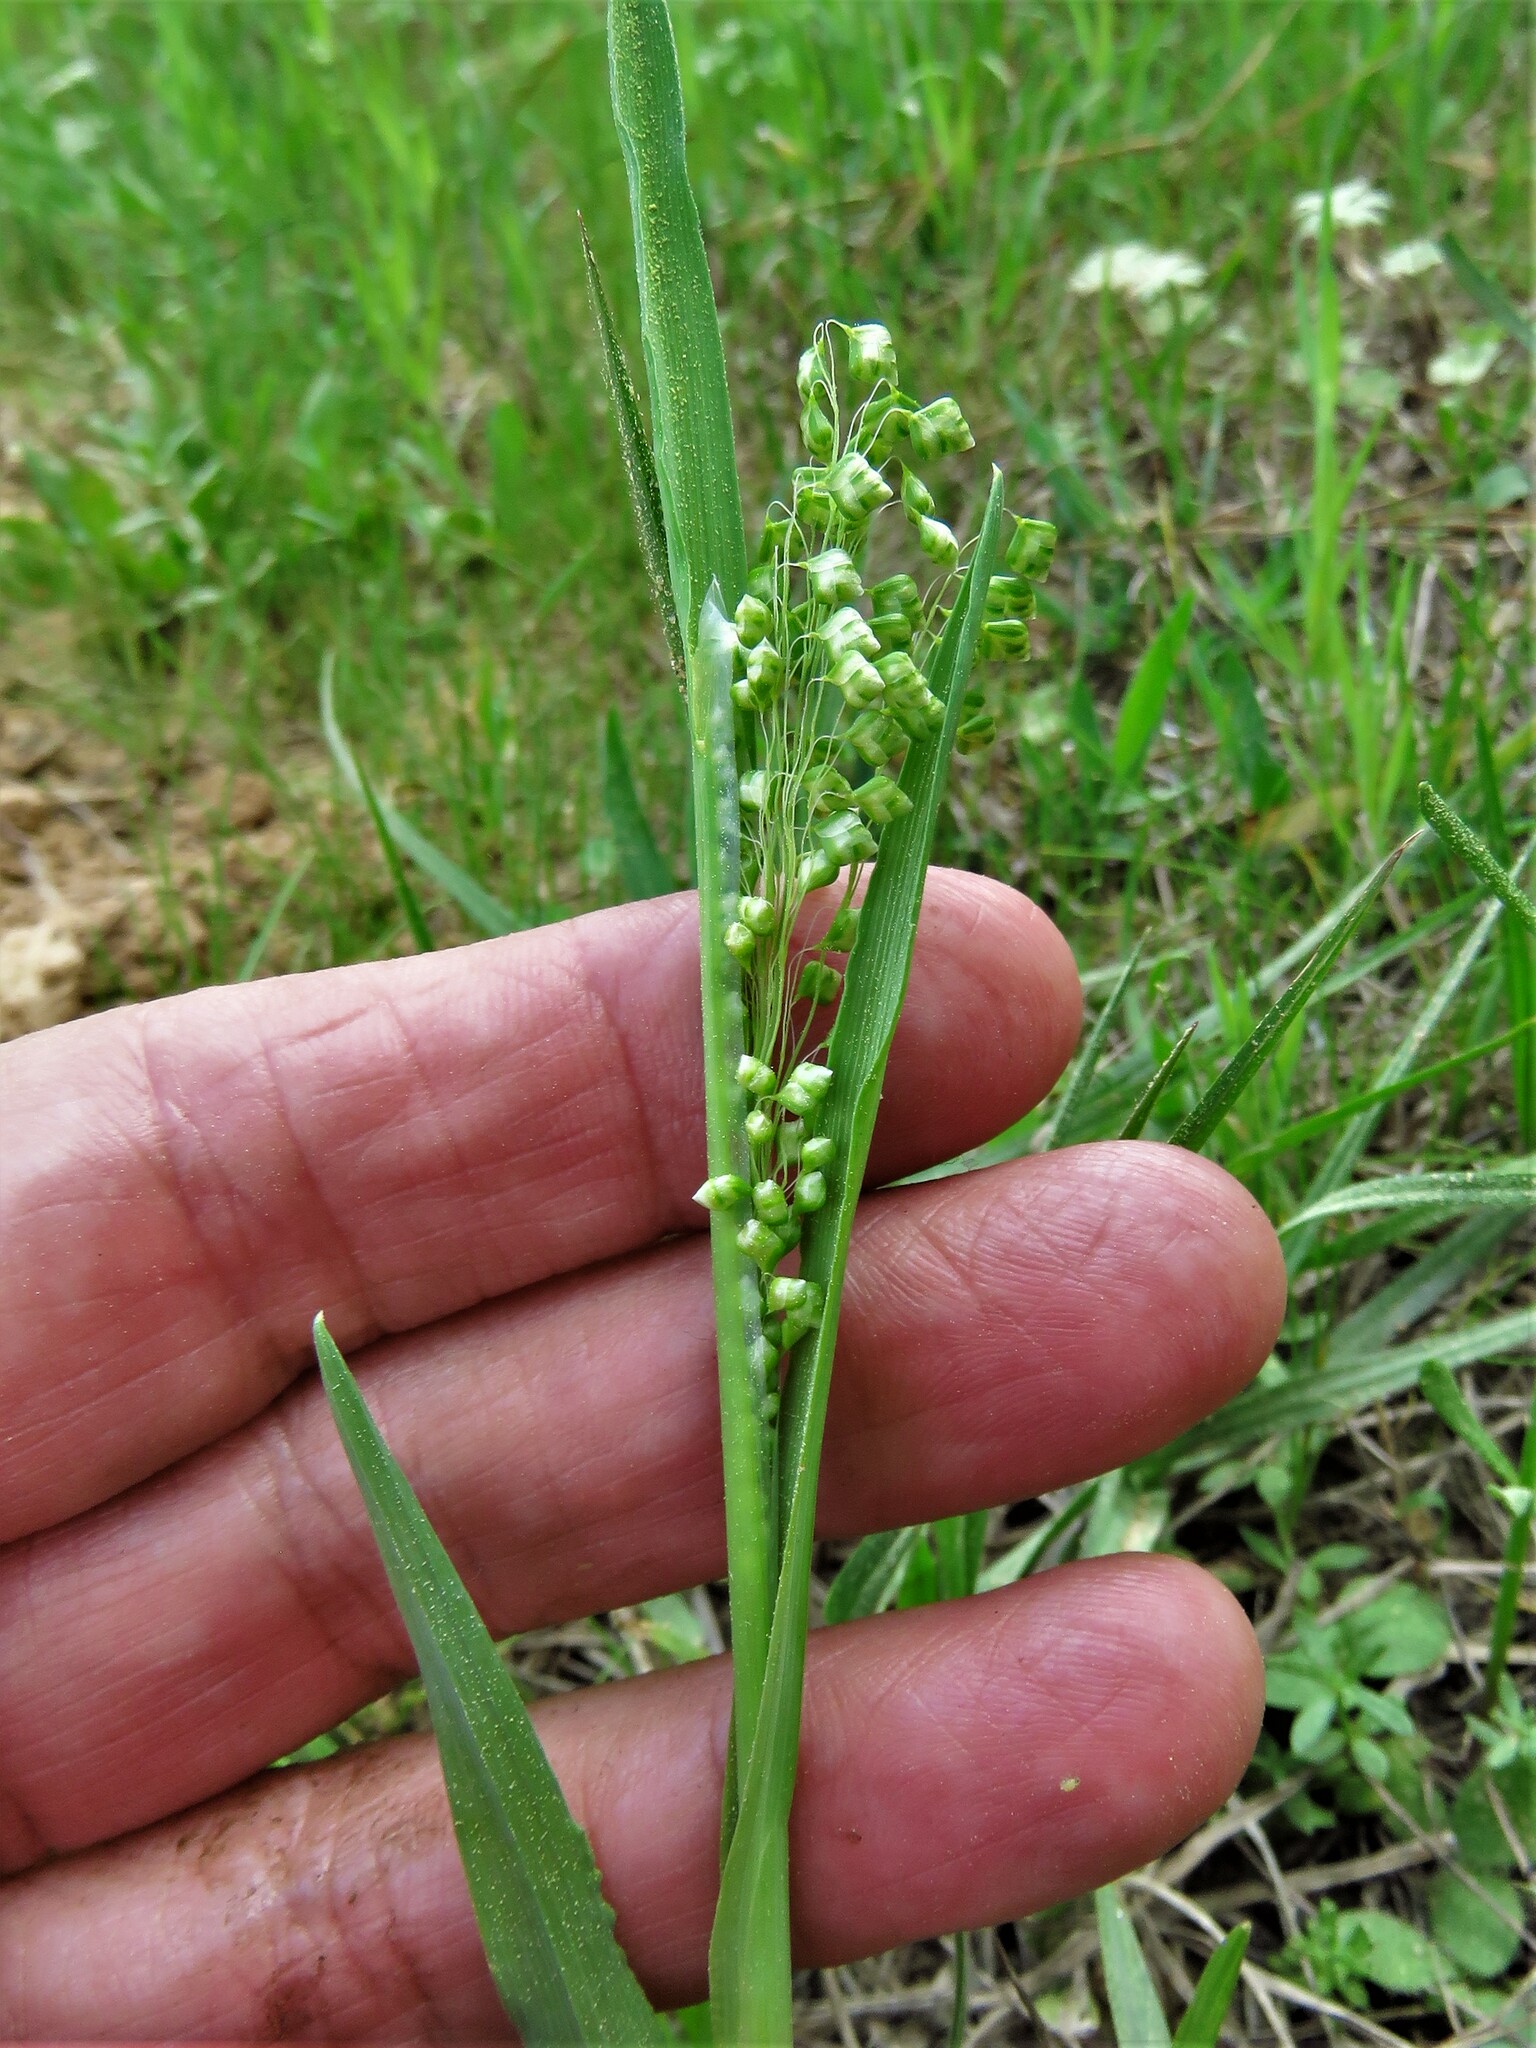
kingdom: Plantae
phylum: Tracheophyta
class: Liliopsida
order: Poales
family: Poaceae
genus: Briza
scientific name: Briza minor
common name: Lesser quaking-grass
